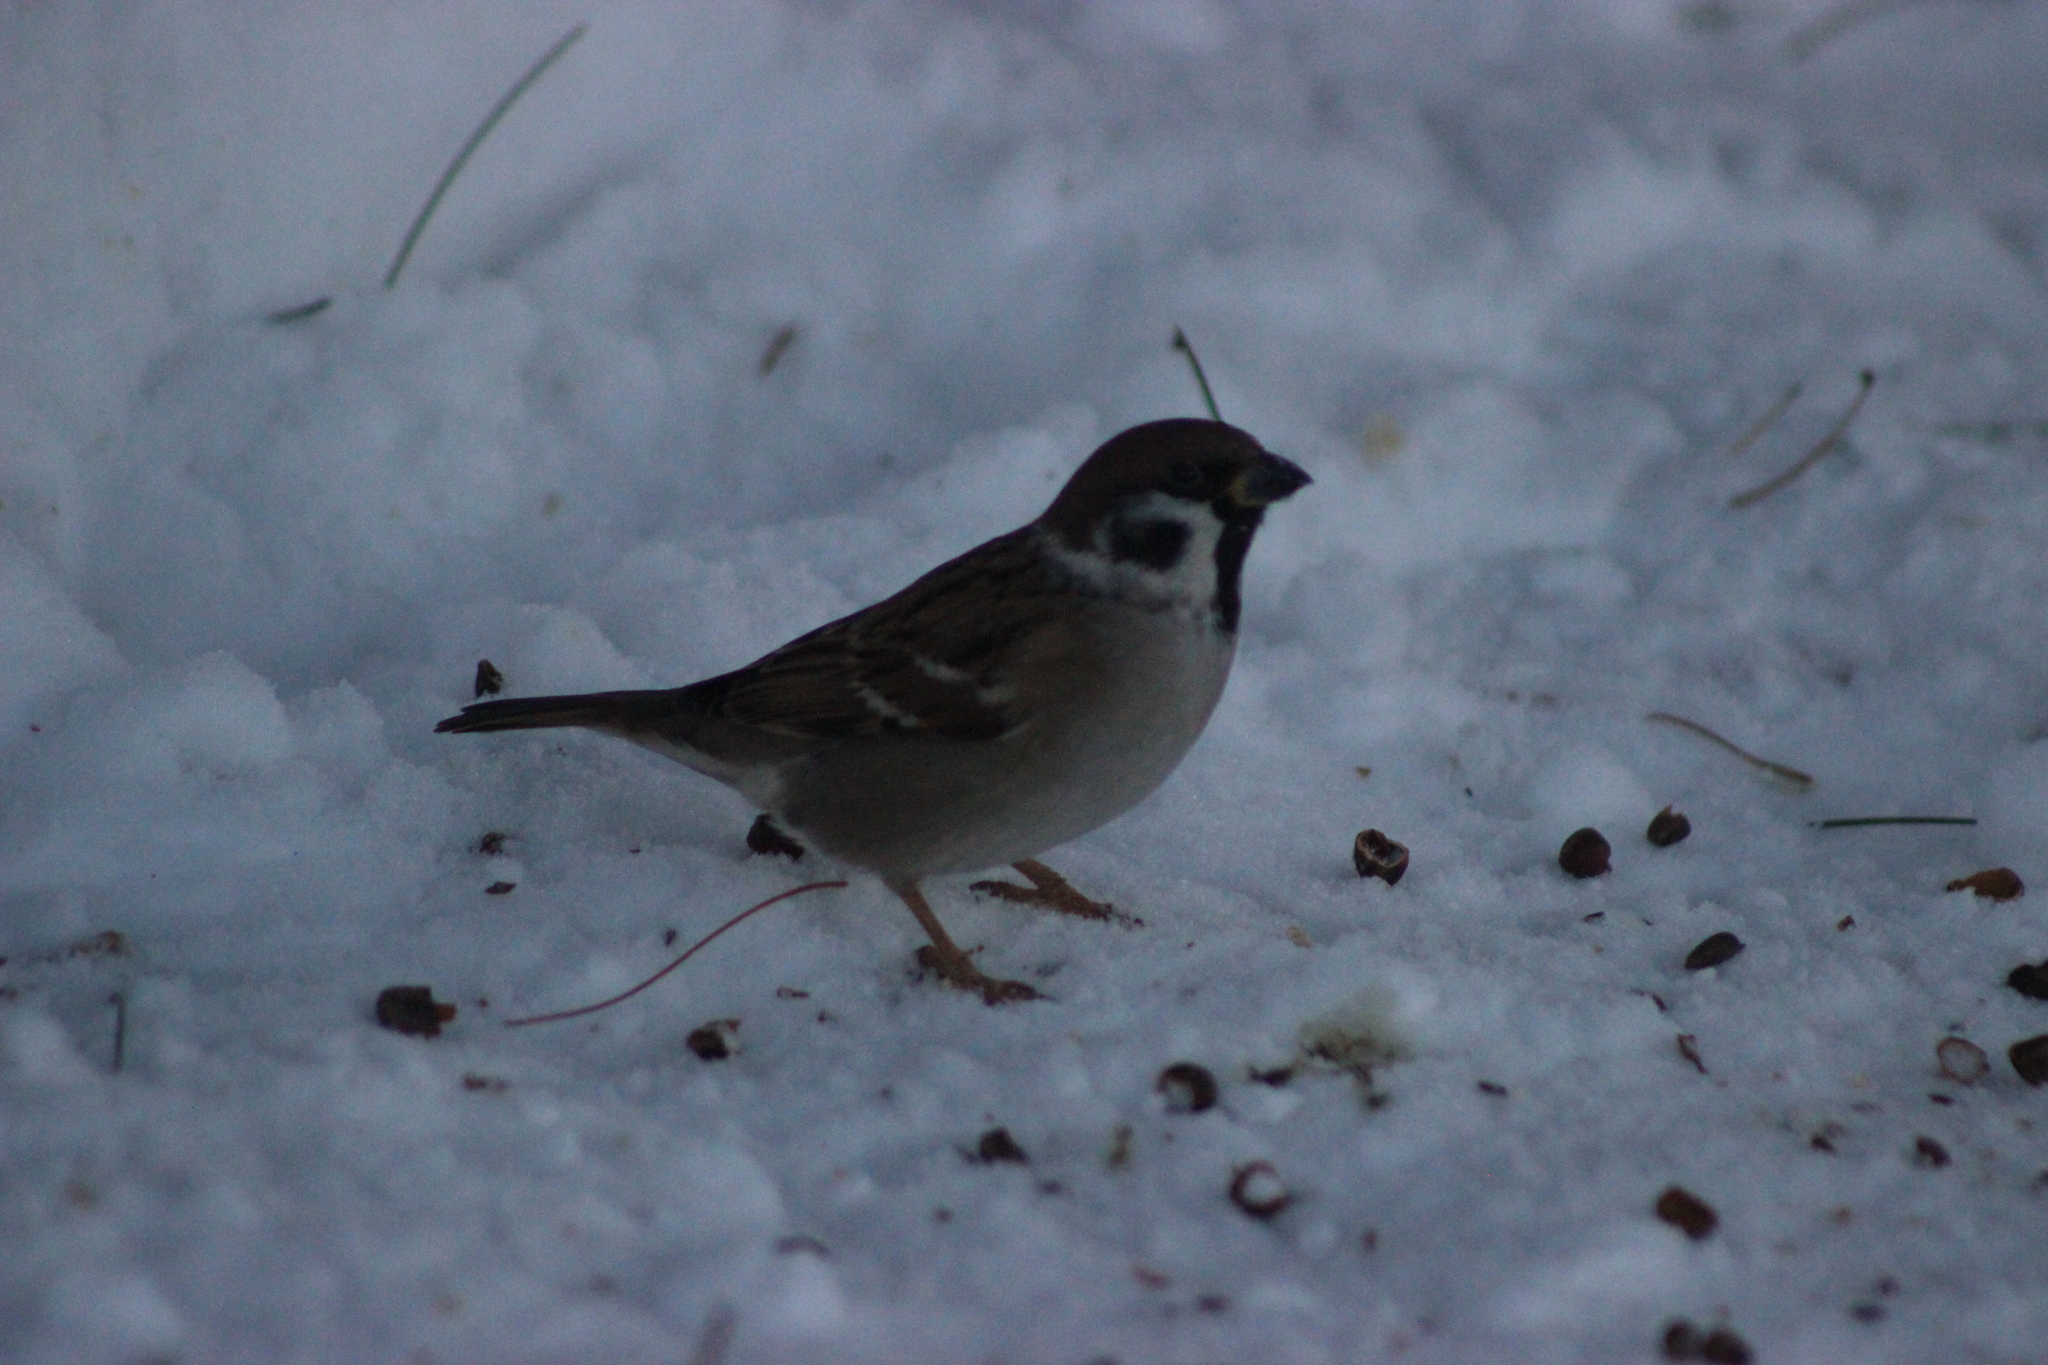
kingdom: Animalia
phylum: Chordata
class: Aves
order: Passeriformes
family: Passeridae
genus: Passer
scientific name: Passer montanus
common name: Eurasian tree sparrow
